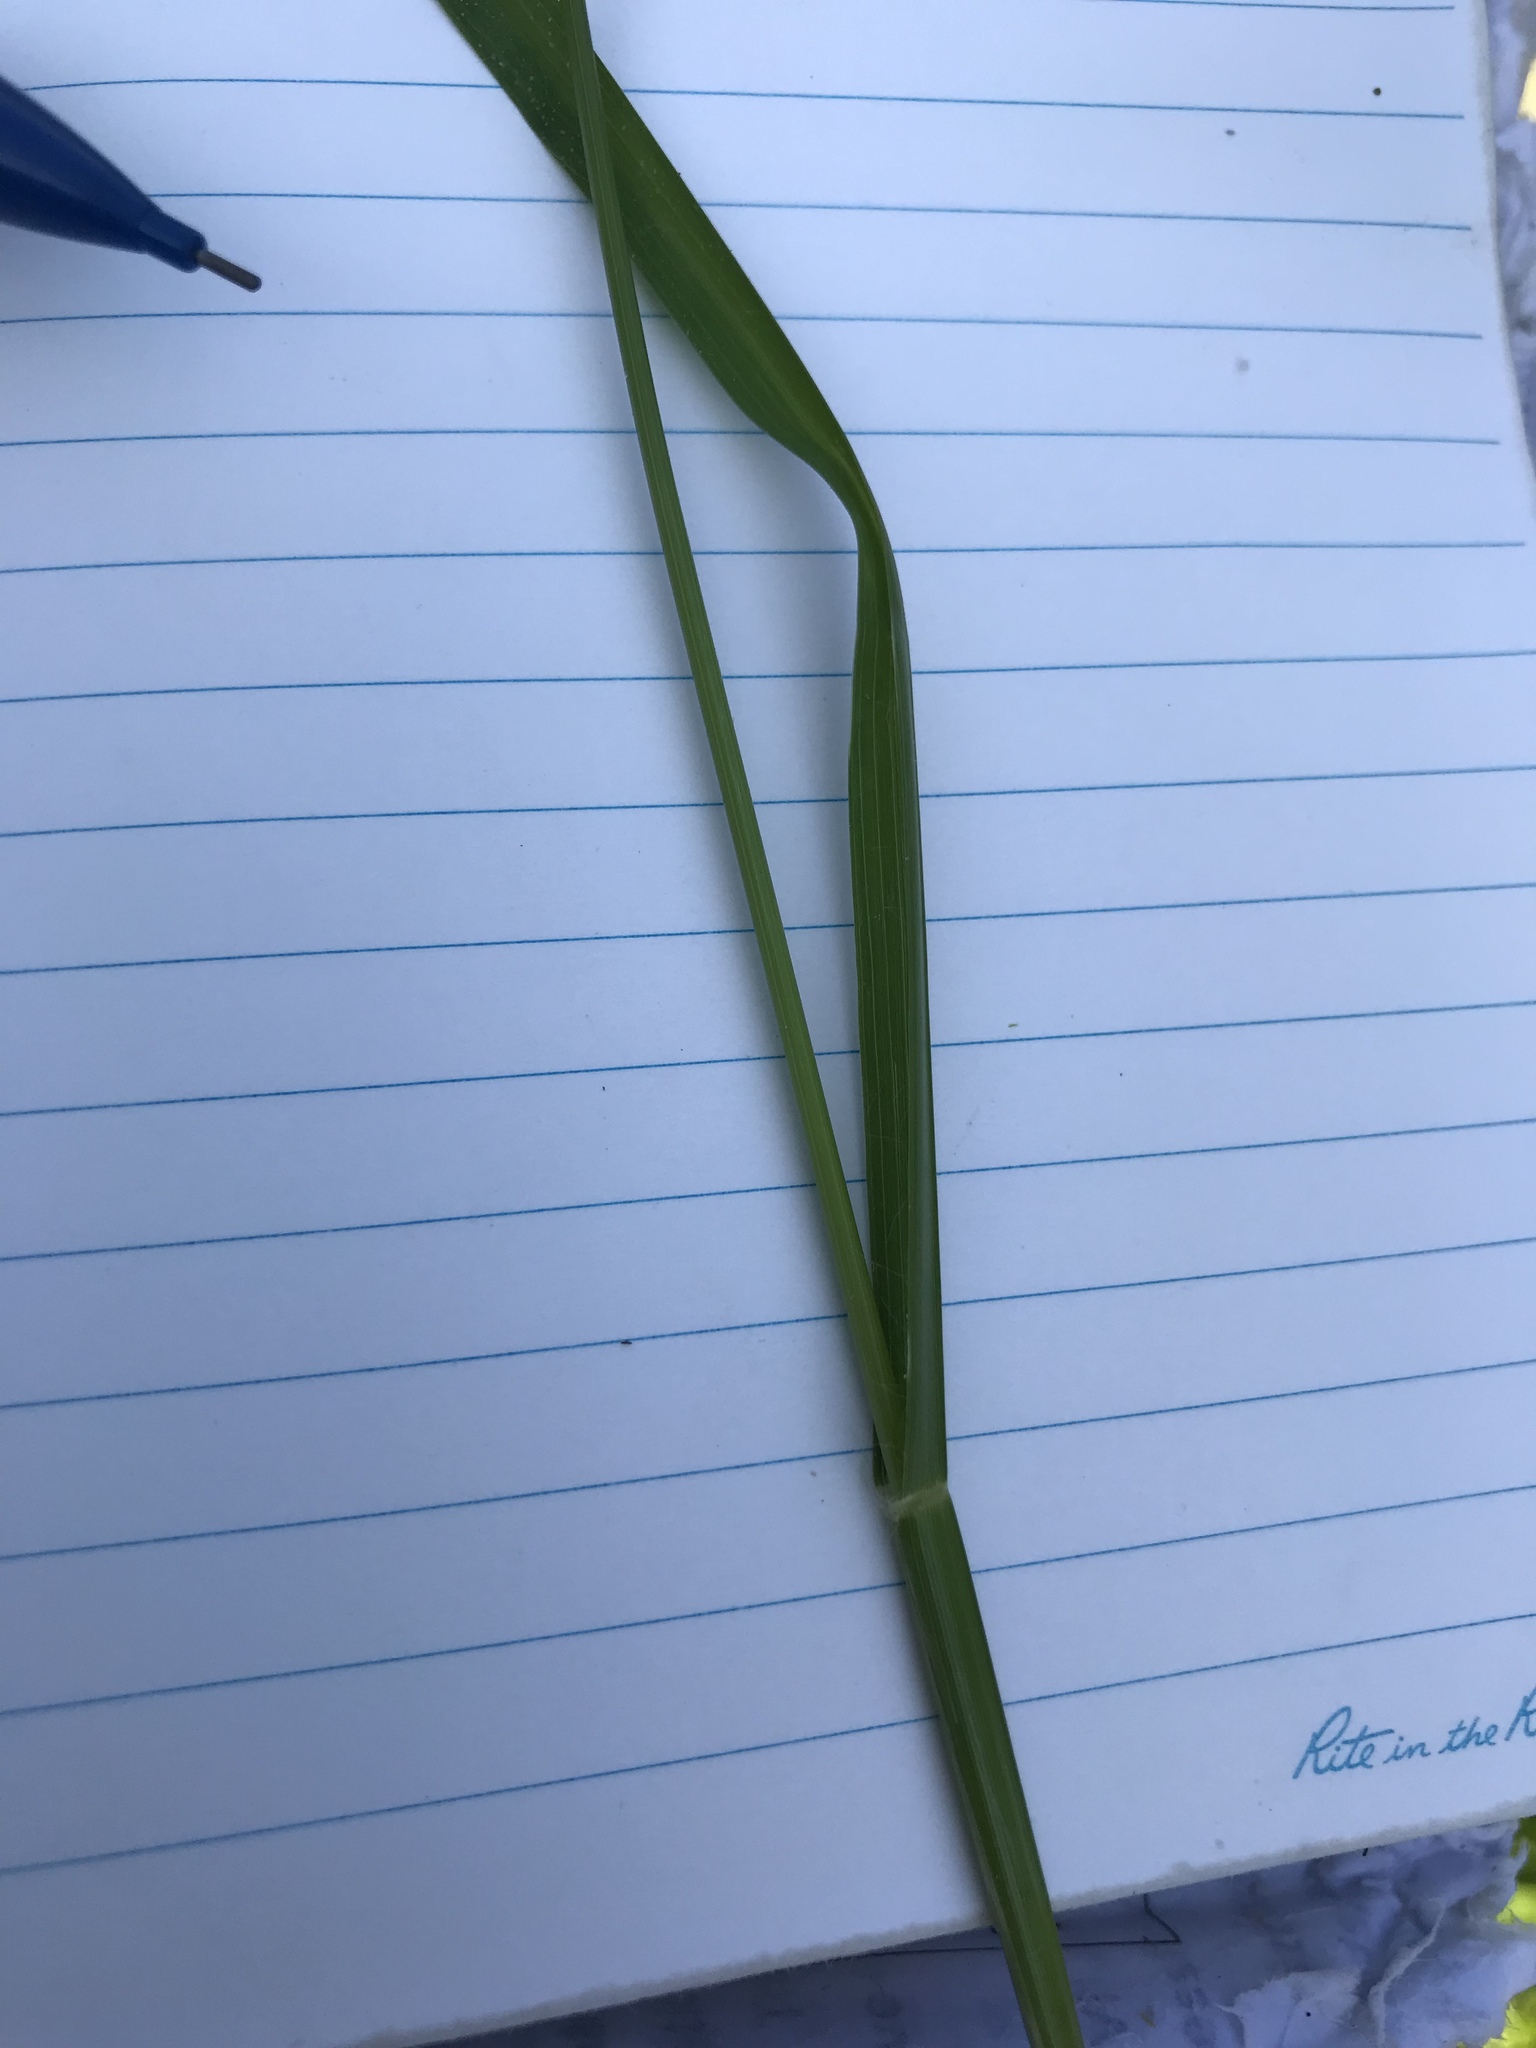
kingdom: Plantae
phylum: Tracheophyta
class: Liliopsida
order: Poales
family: Poaceae
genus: Eleusine
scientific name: Eleusine indica
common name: Yard-grass
